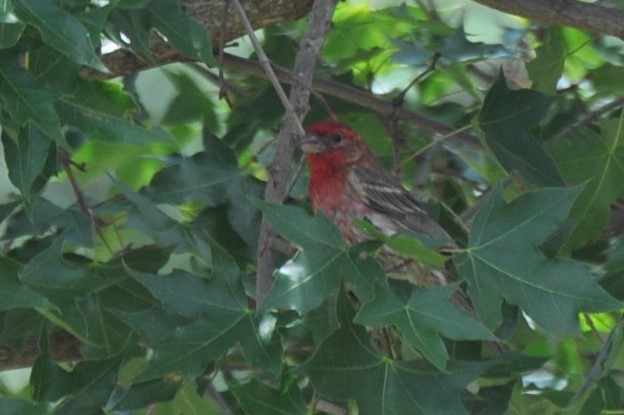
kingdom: Animalia
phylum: Chordata
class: Aves
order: Passeriformes
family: Fringillidae
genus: Haemorhous
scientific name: Haemorhous mexicanus
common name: House finch
